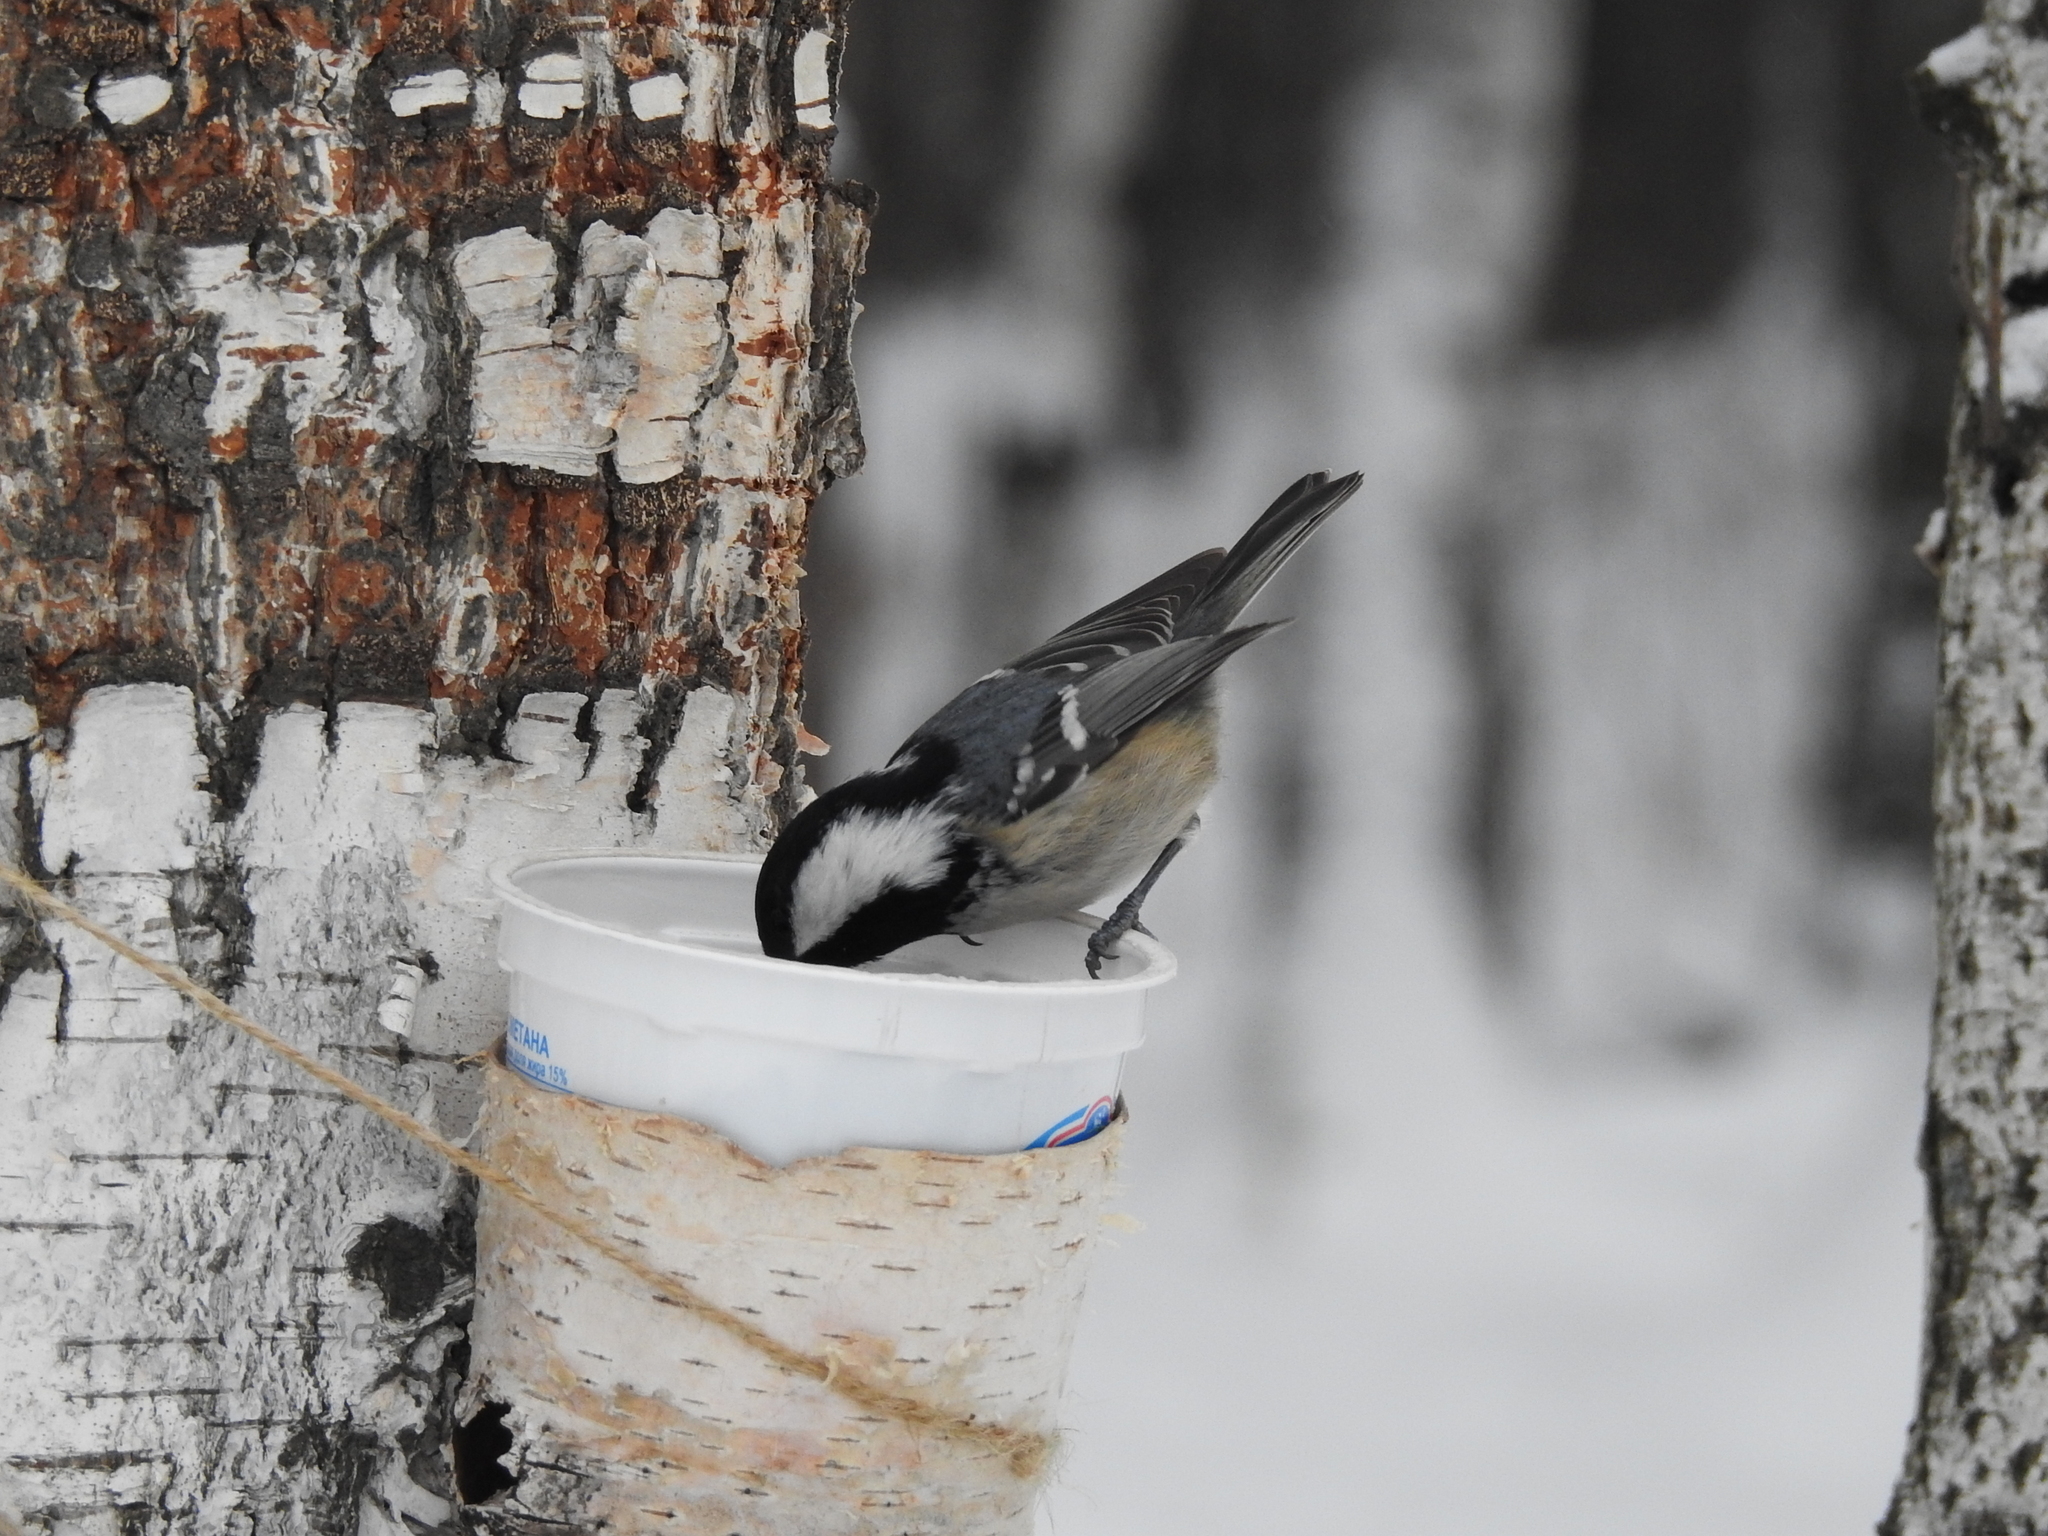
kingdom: Animalia
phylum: Chordata
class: Aves
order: Passeriformes
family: Paridae
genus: Periparus
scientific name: Periparus ater
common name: Coal tit
